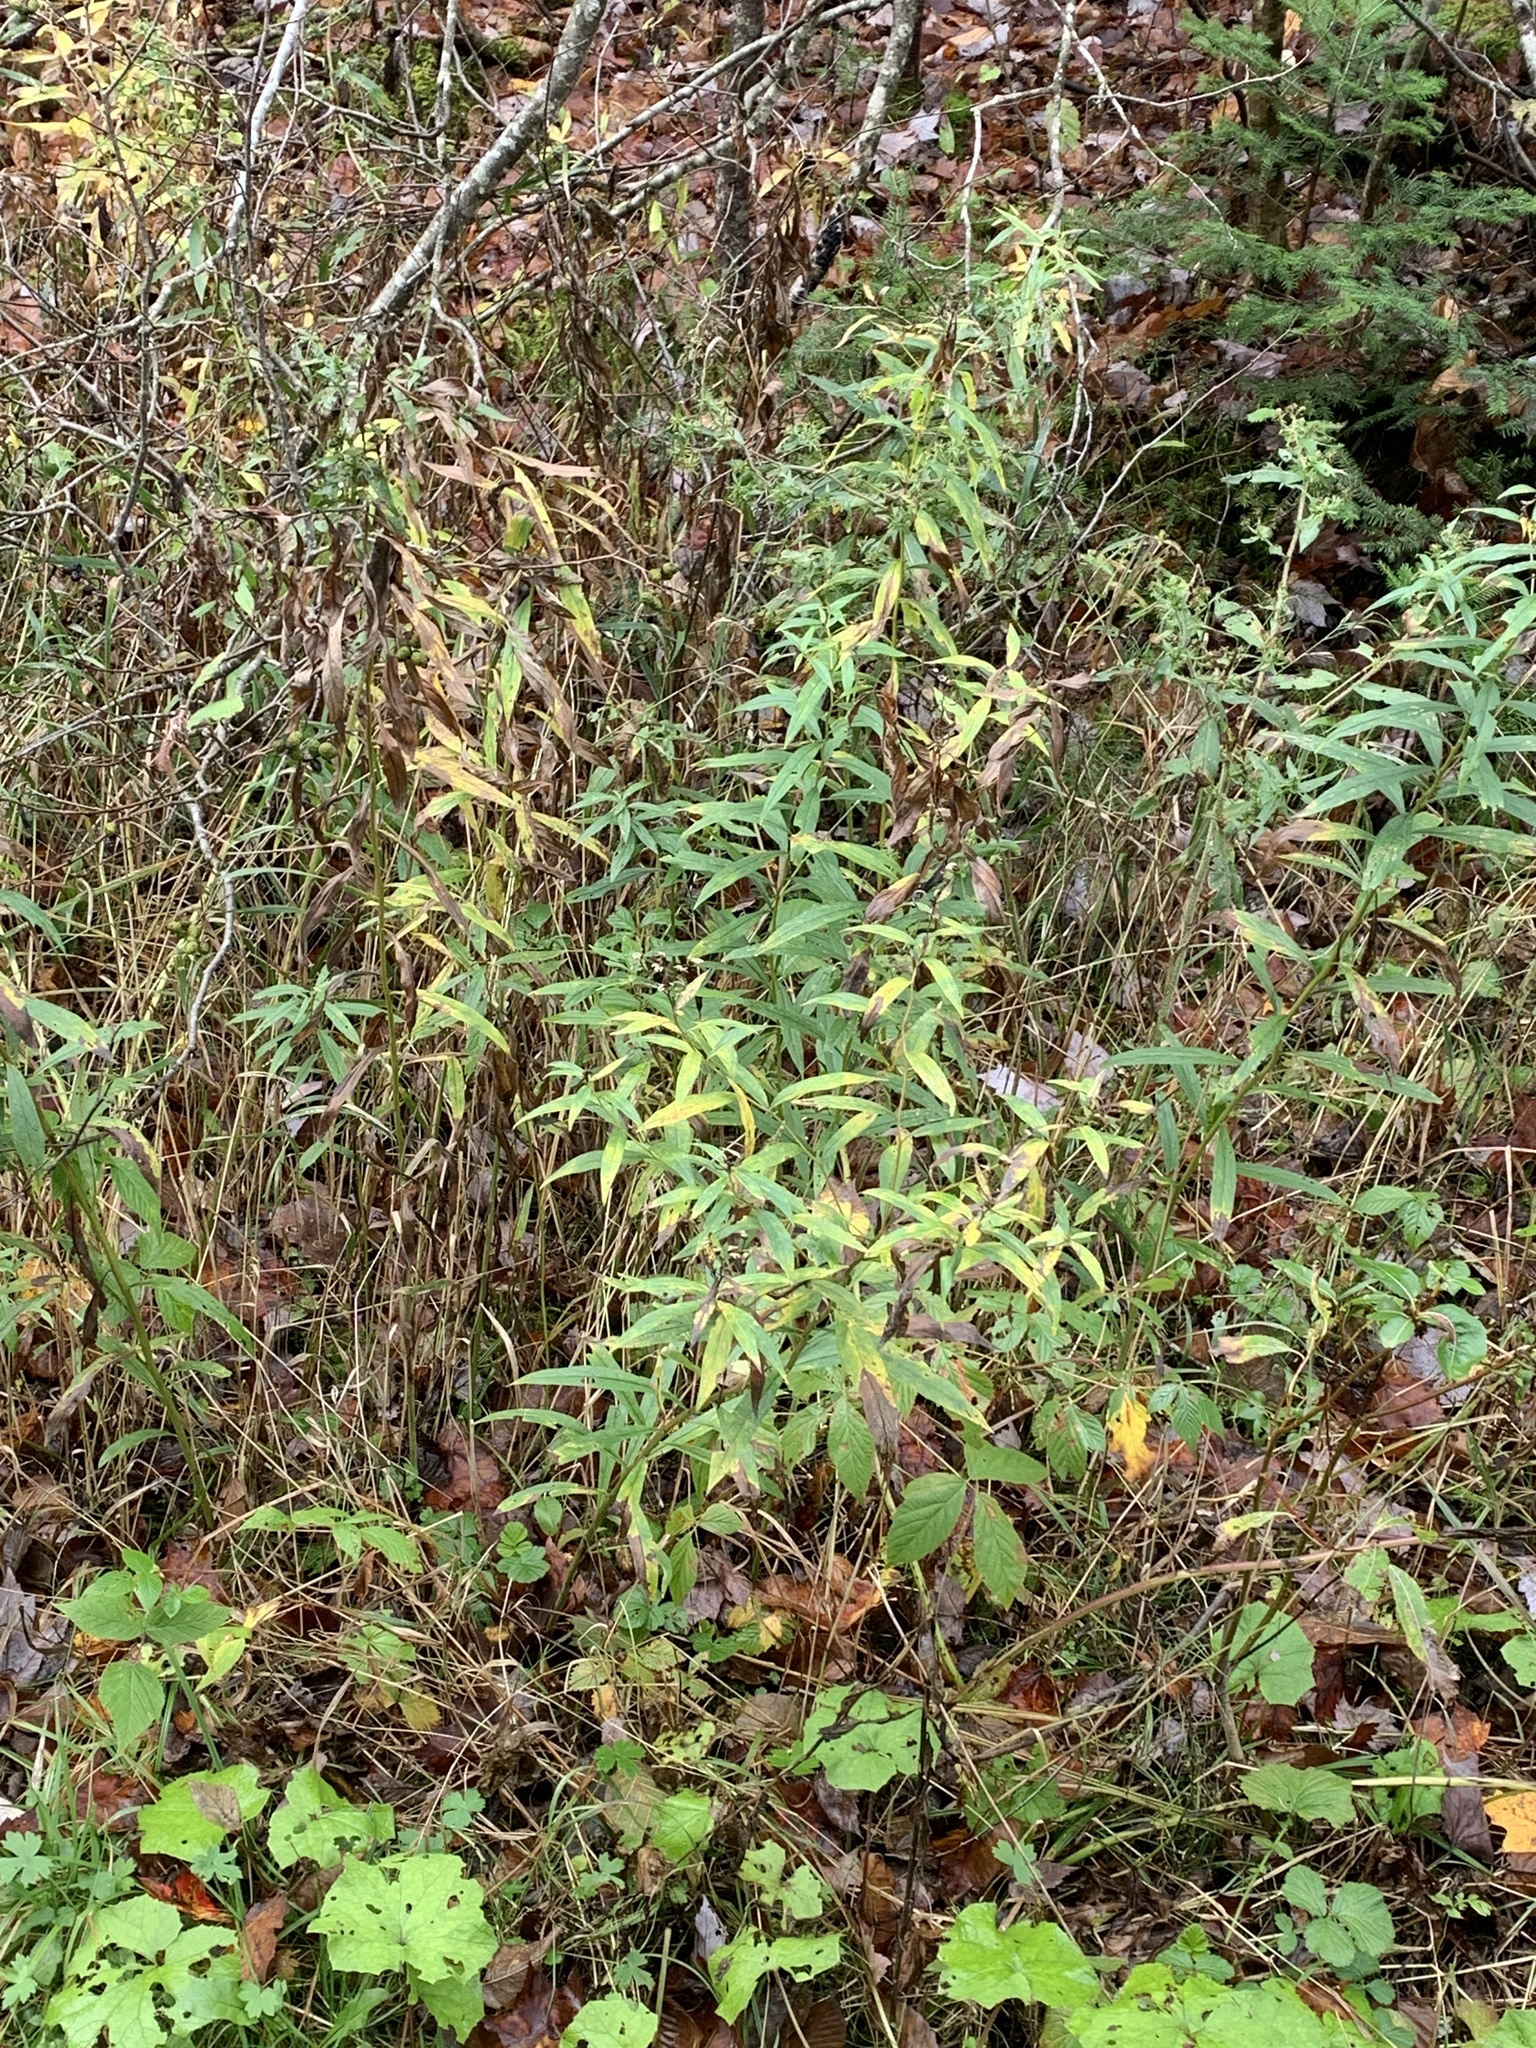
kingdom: Plantae
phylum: Tracheophyta
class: Magnoliopsida
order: Asterales
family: Asteraceae
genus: Doellingeria
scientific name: Doellingeria umbellata
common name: Flat-top white aster
